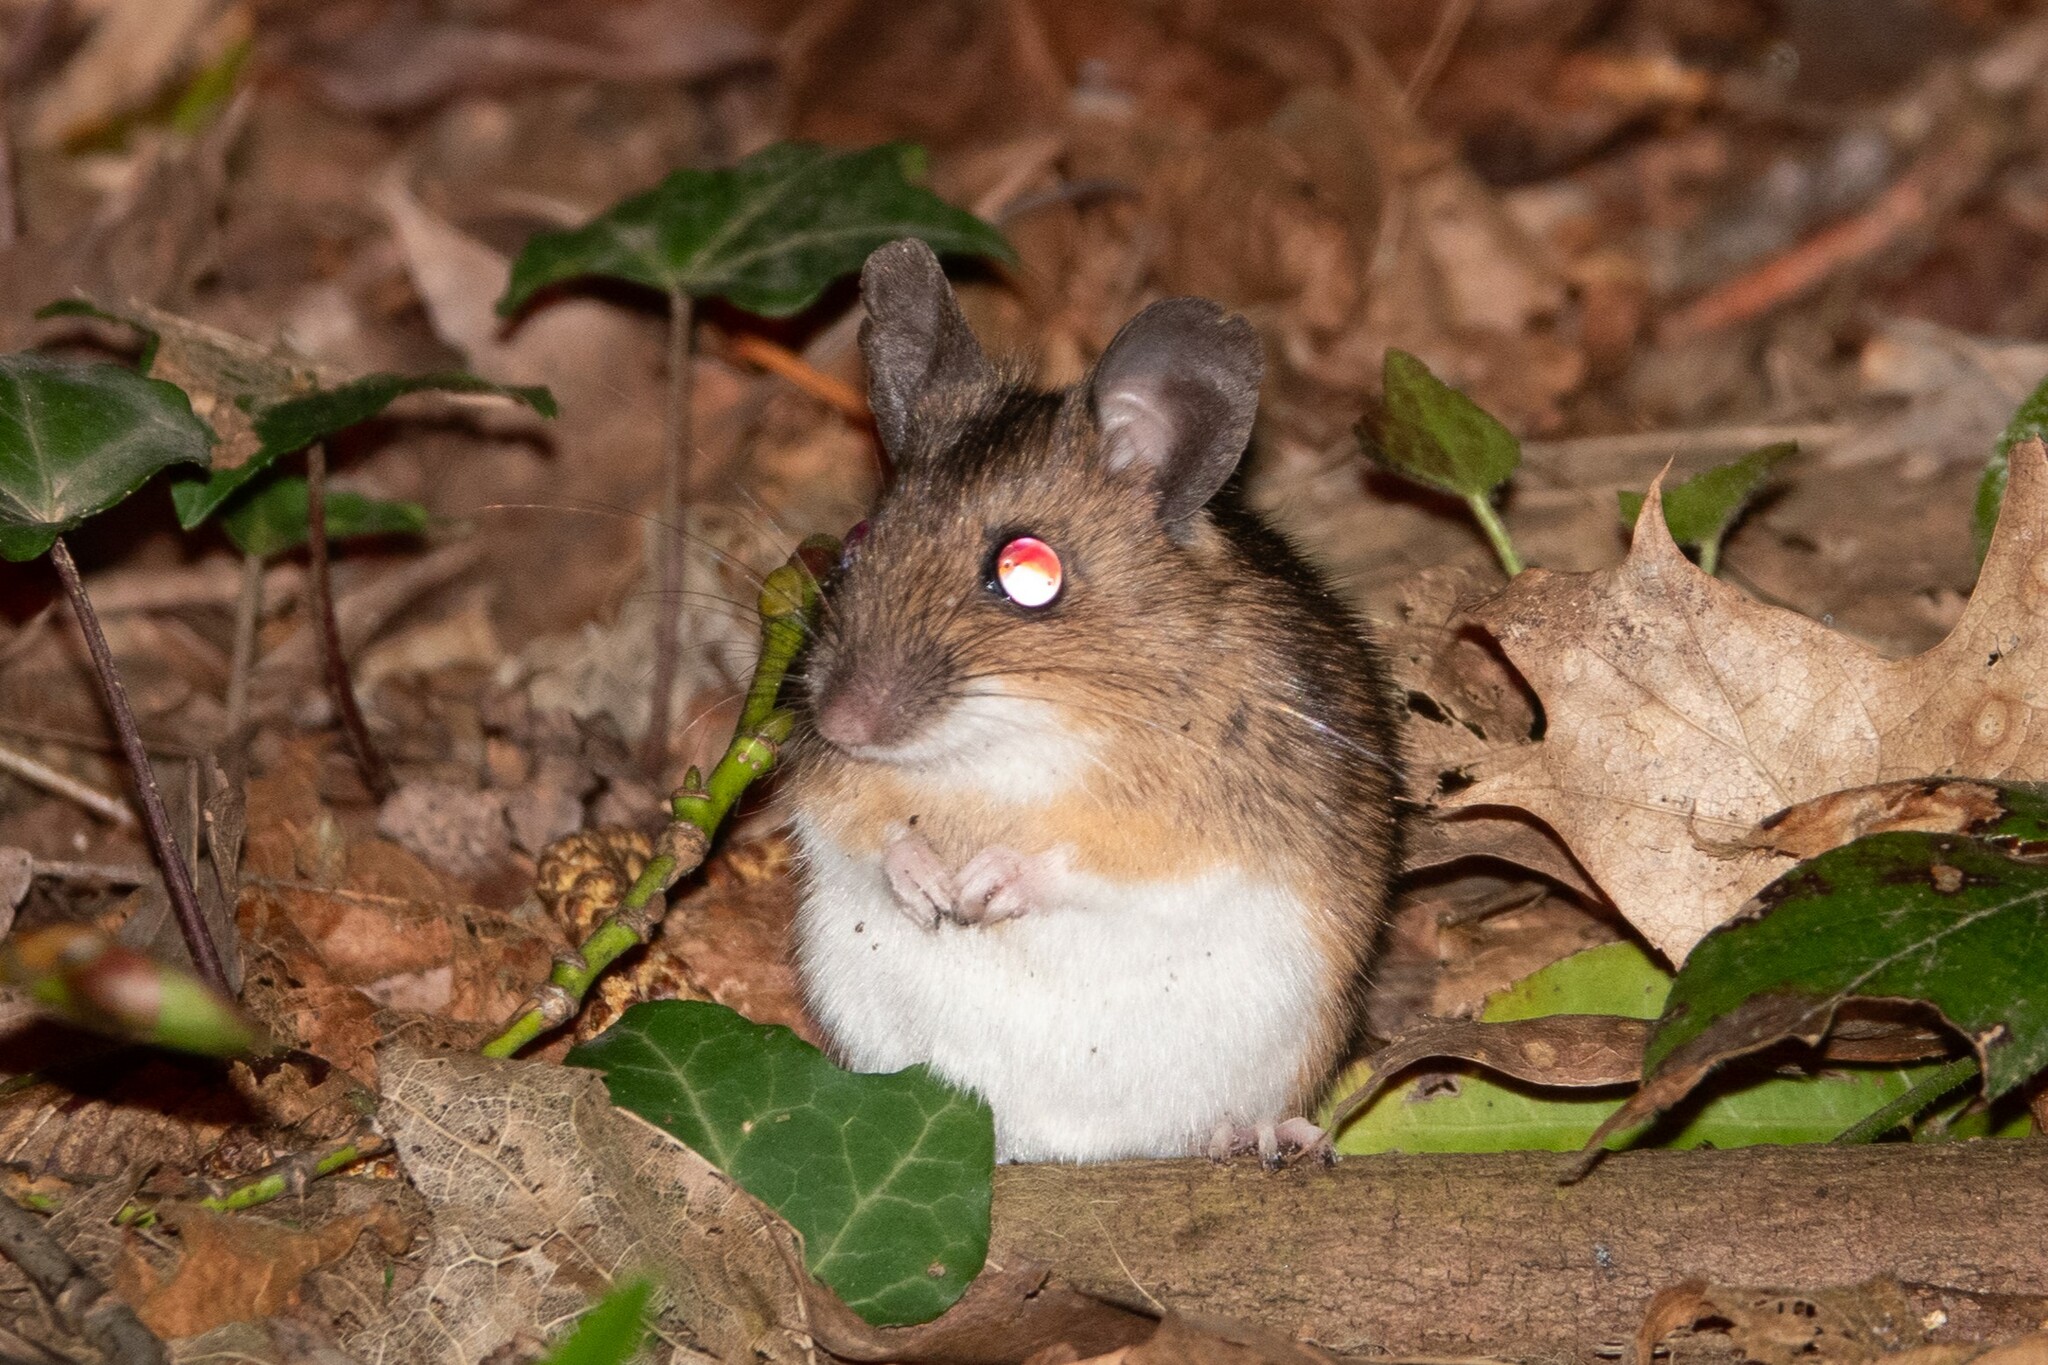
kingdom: Animalia
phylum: Chordata
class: Mammalia
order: Rodentia
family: Muridae
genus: Apodemus
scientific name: Apodemus flavicollis
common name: Yellow-necked field mouse
